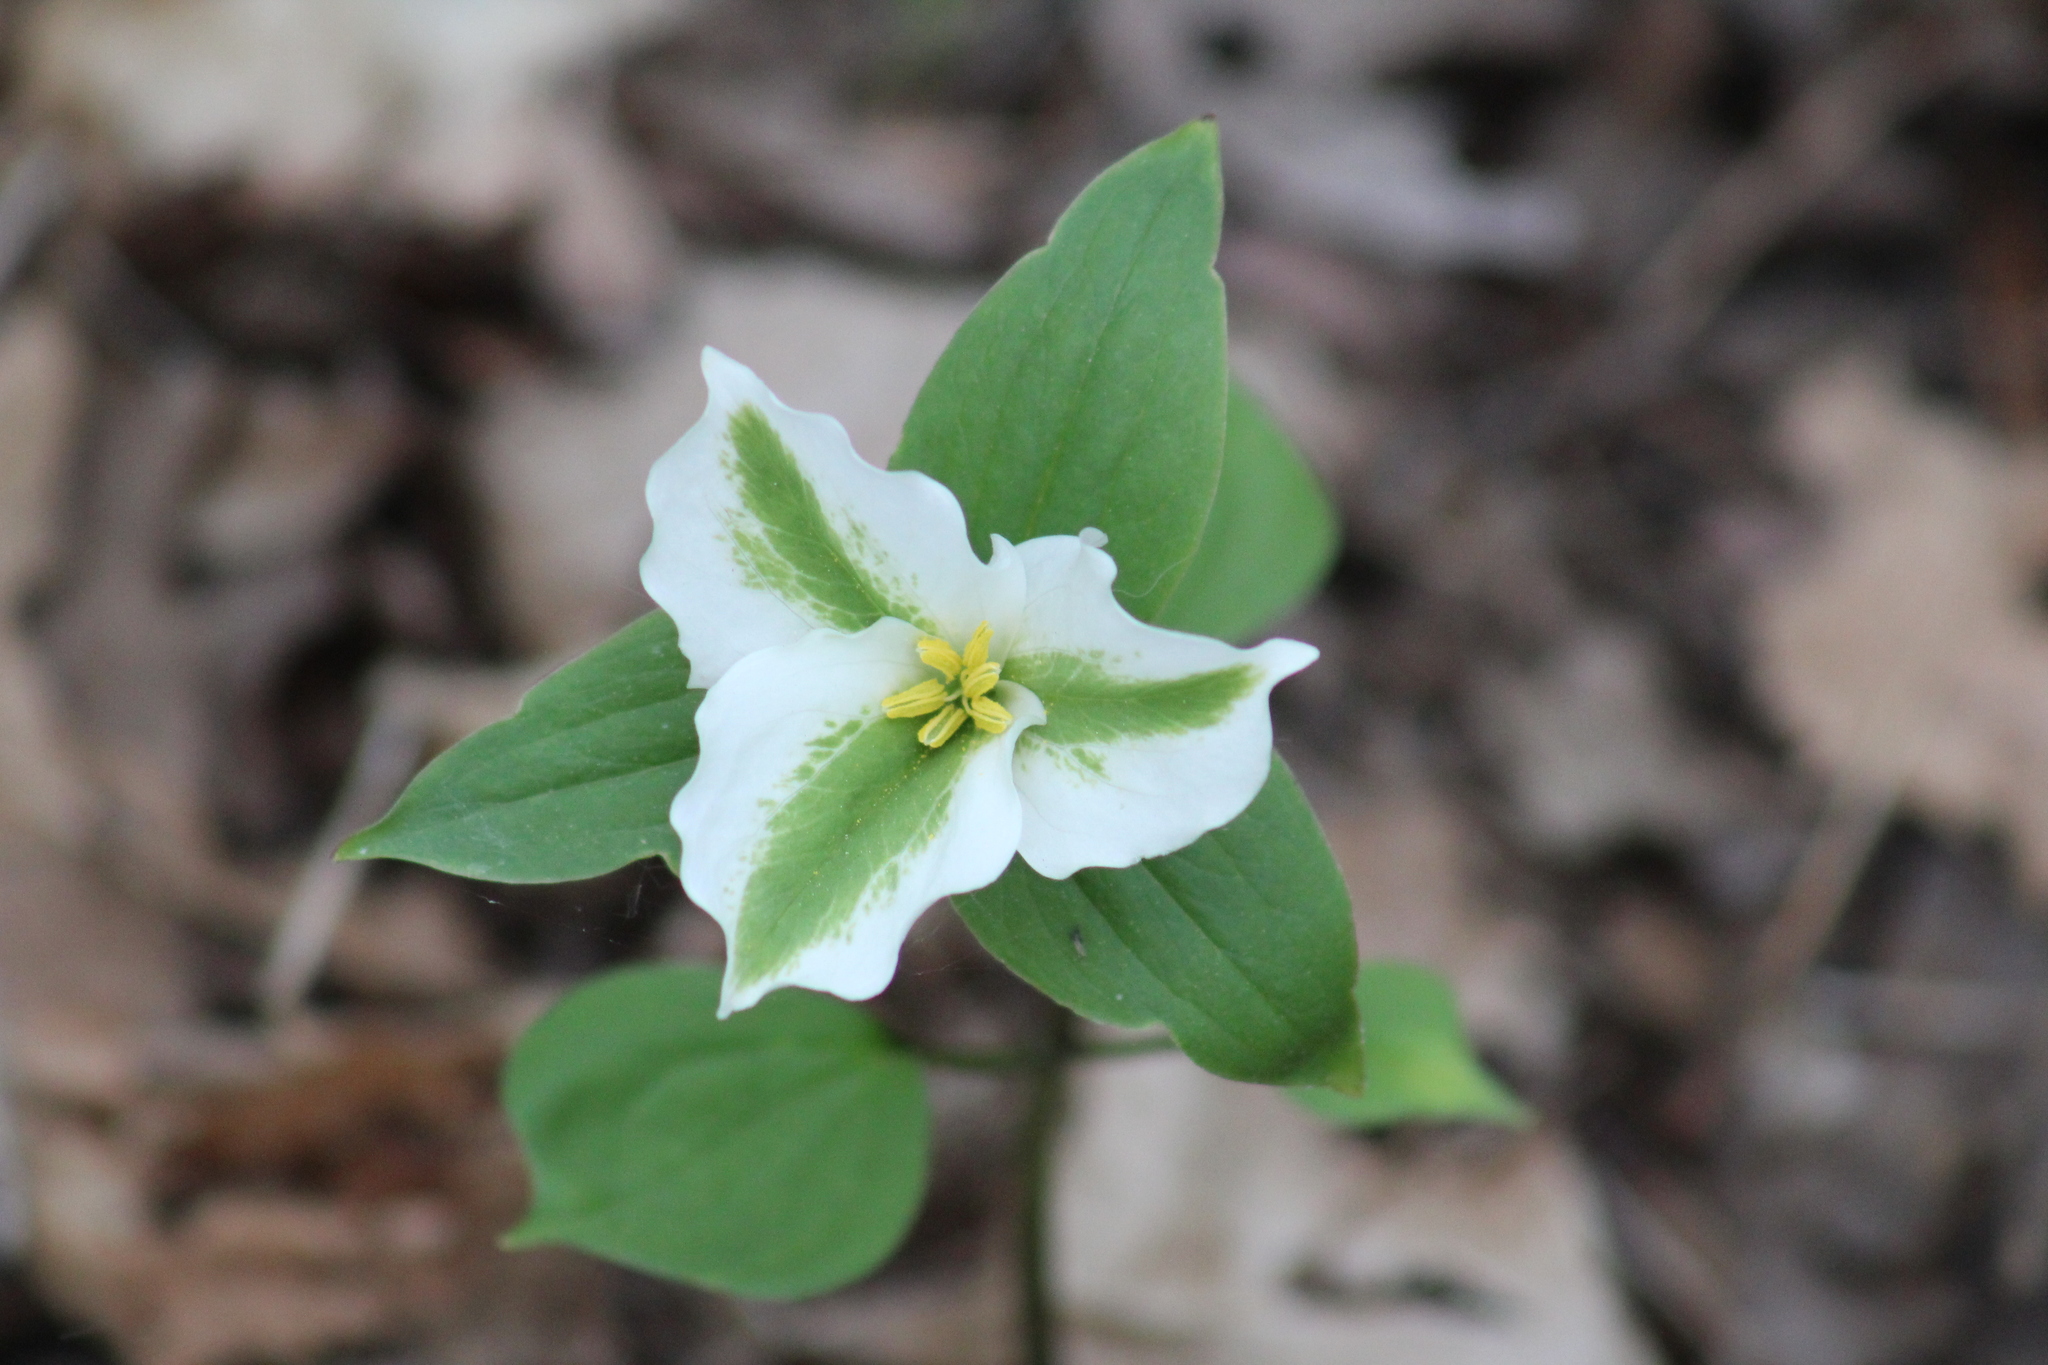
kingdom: Plantae
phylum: Tracheophyta
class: Liliopsida
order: Liliales
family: Melanthiaceae
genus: Trillium
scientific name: Trillium grandiflorum
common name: Great white trillium
